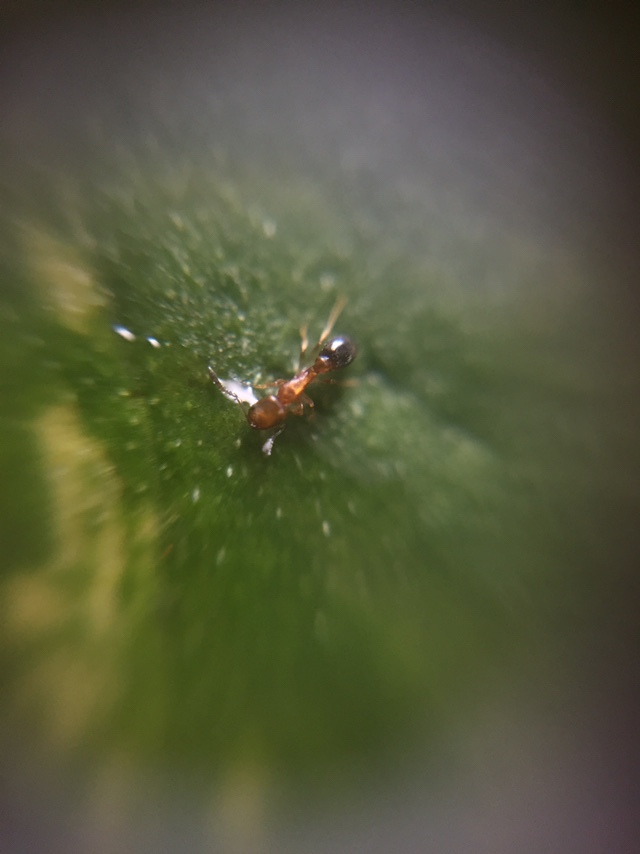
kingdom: Animalia
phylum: Arthropoda
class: Insecta
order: Hymenoptera
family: Formicidae
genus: Cardiocondyla
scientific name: Cardiocondyla minutior
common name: Ant
